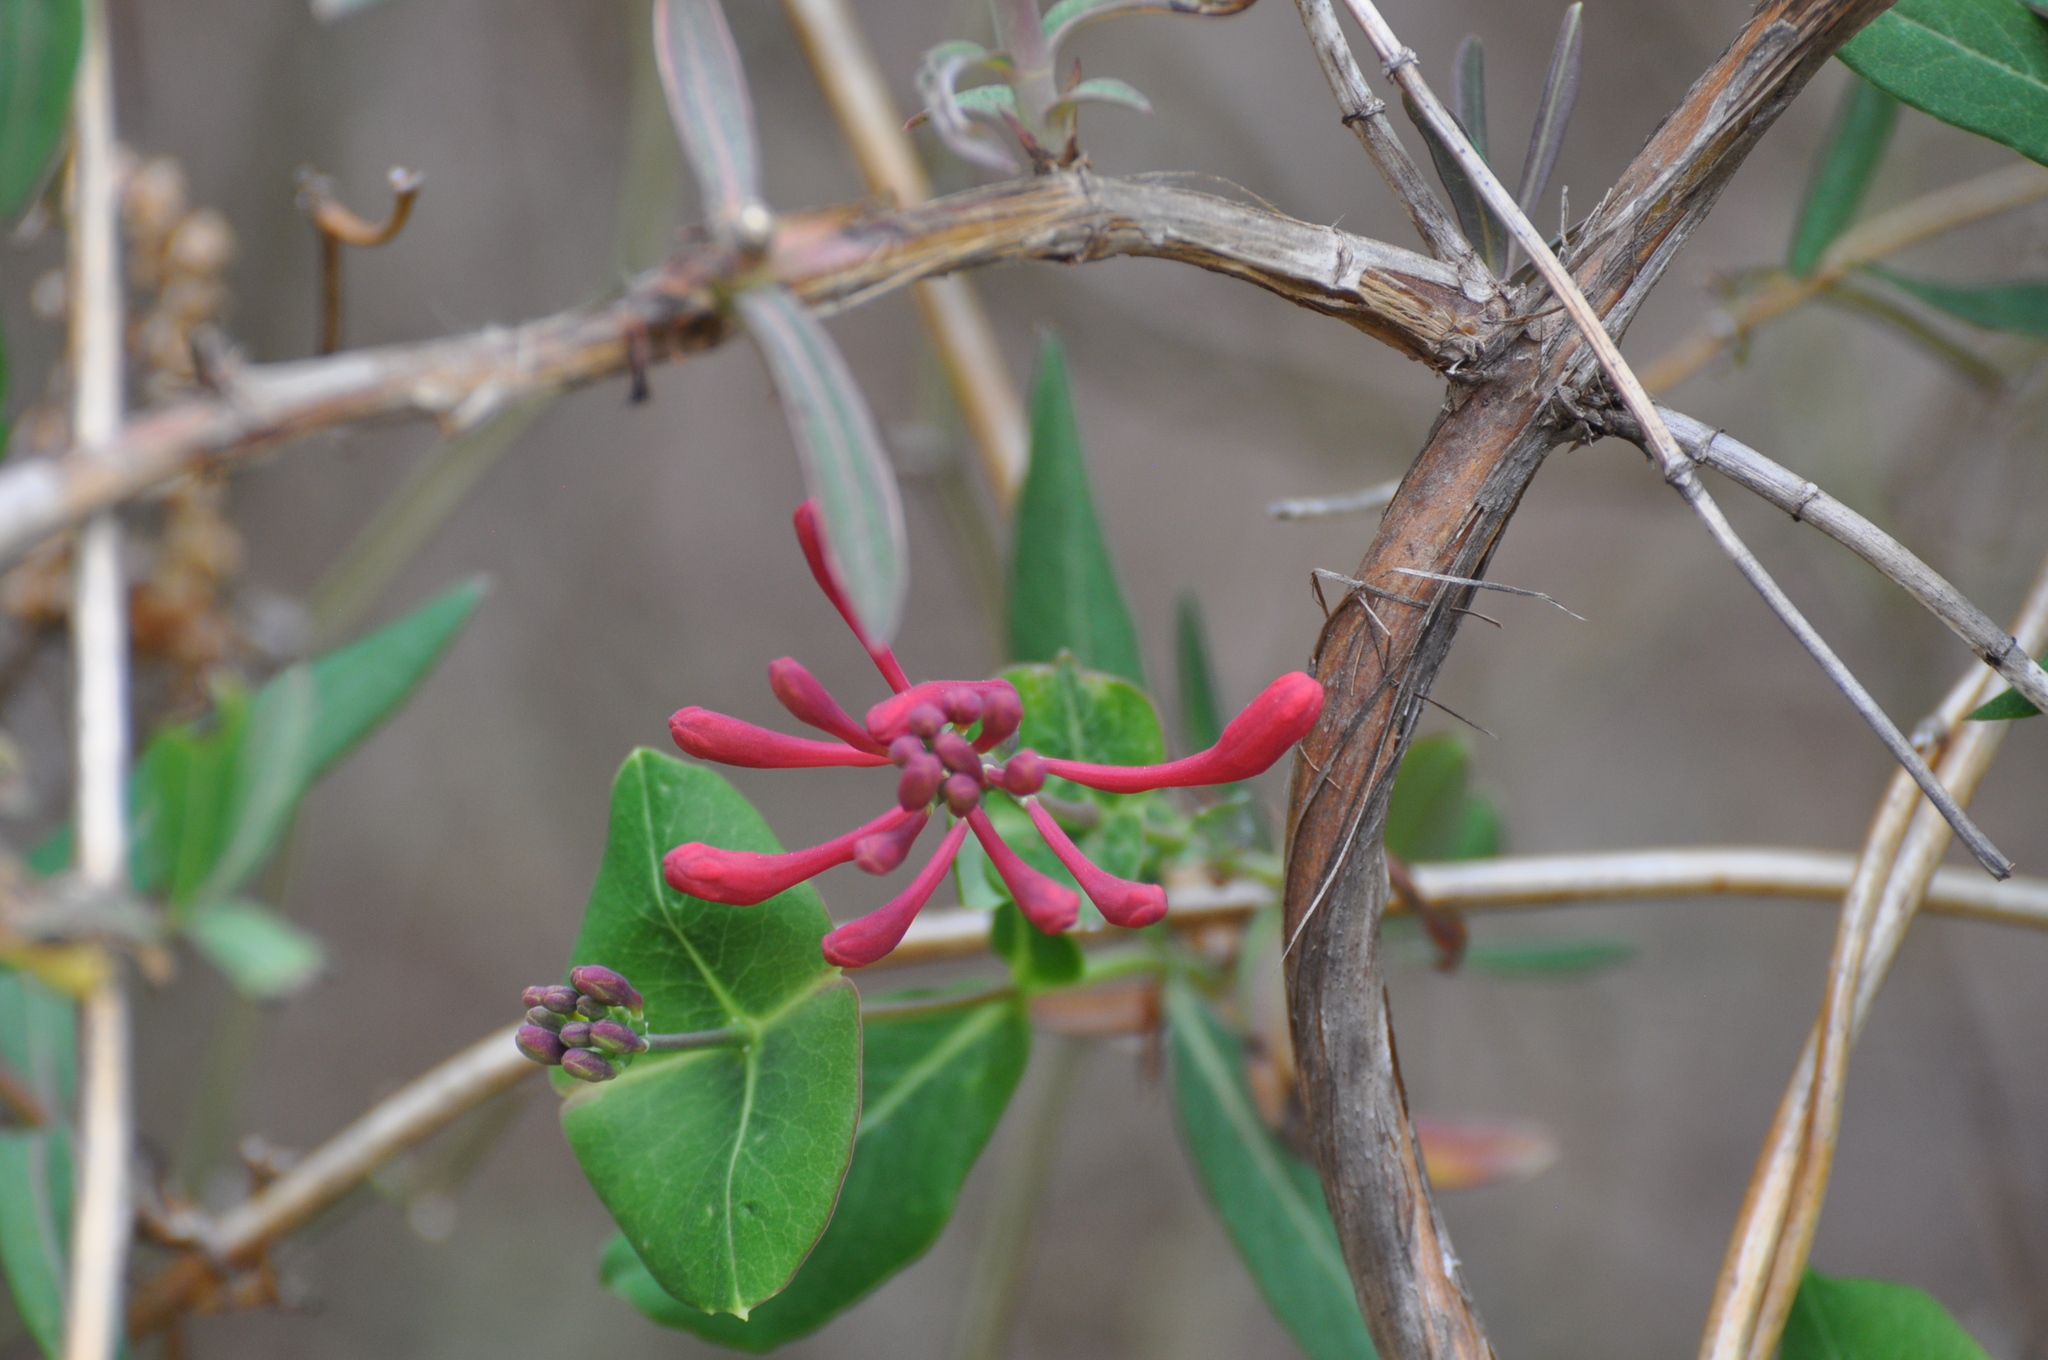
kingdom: Plantae
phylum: Tracheophyta
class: Magnoliopsida
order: Dipsacales
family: Caprifoliaceae
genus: Lonicera
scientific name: Lonicera sempervirens
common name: Coral honeysuckle
